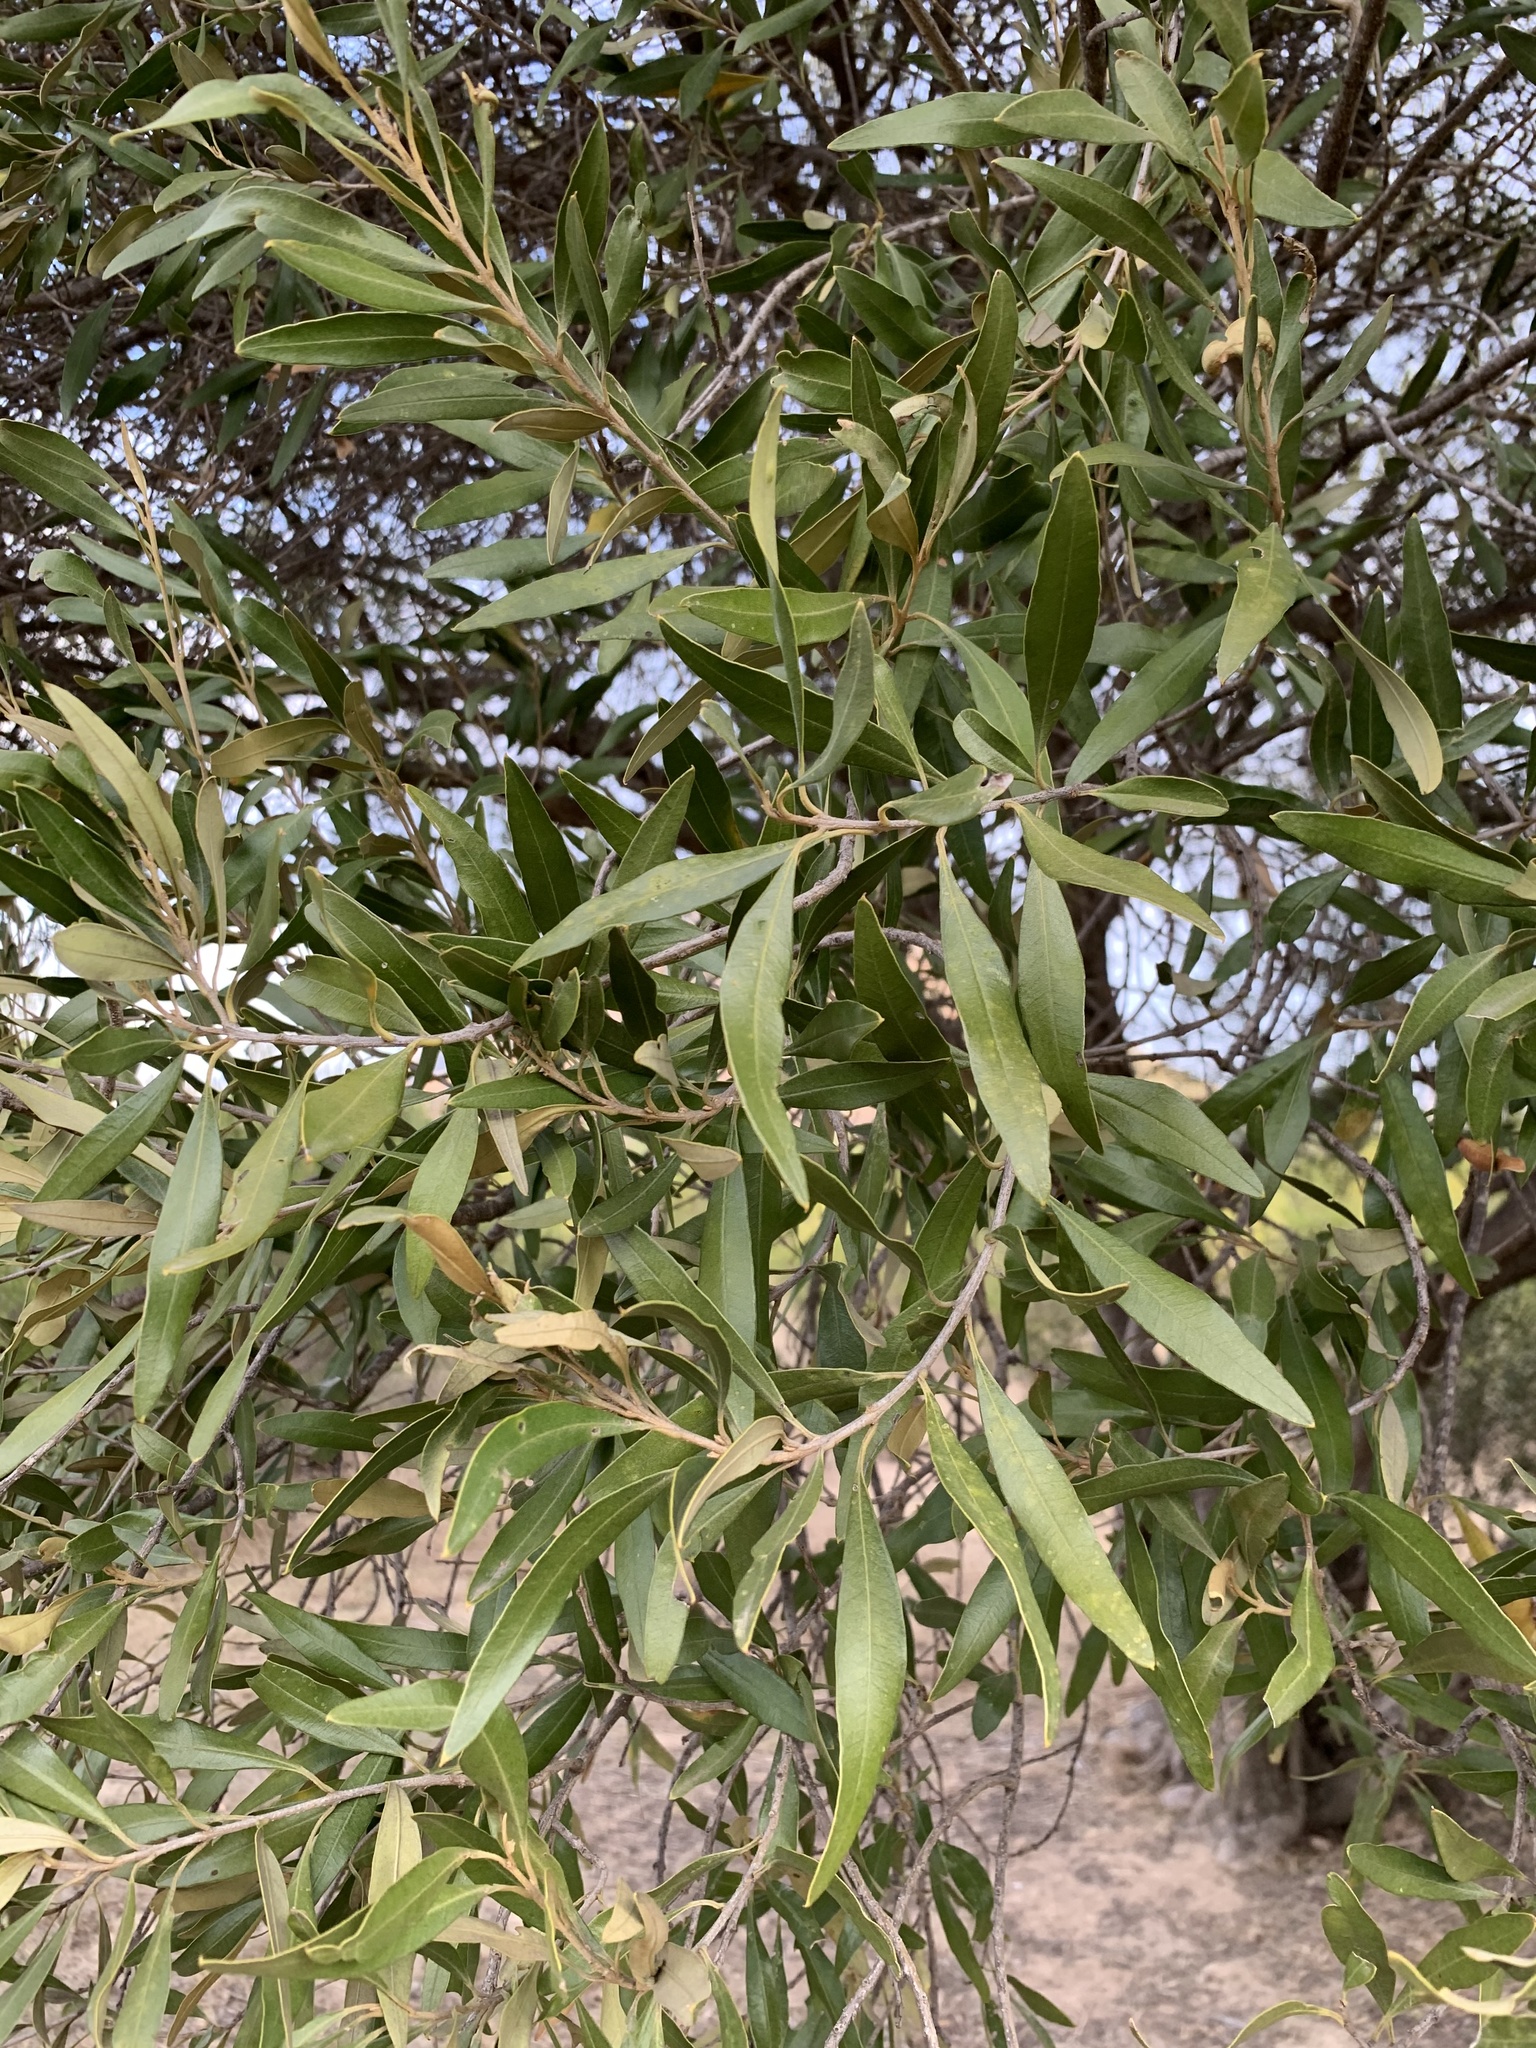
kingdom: Plantae
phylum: Tracheophyta
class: Magnoliopsida
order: Lamiales
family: Oleaceae
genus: Olea
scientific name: Olea europaea
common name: Olive
